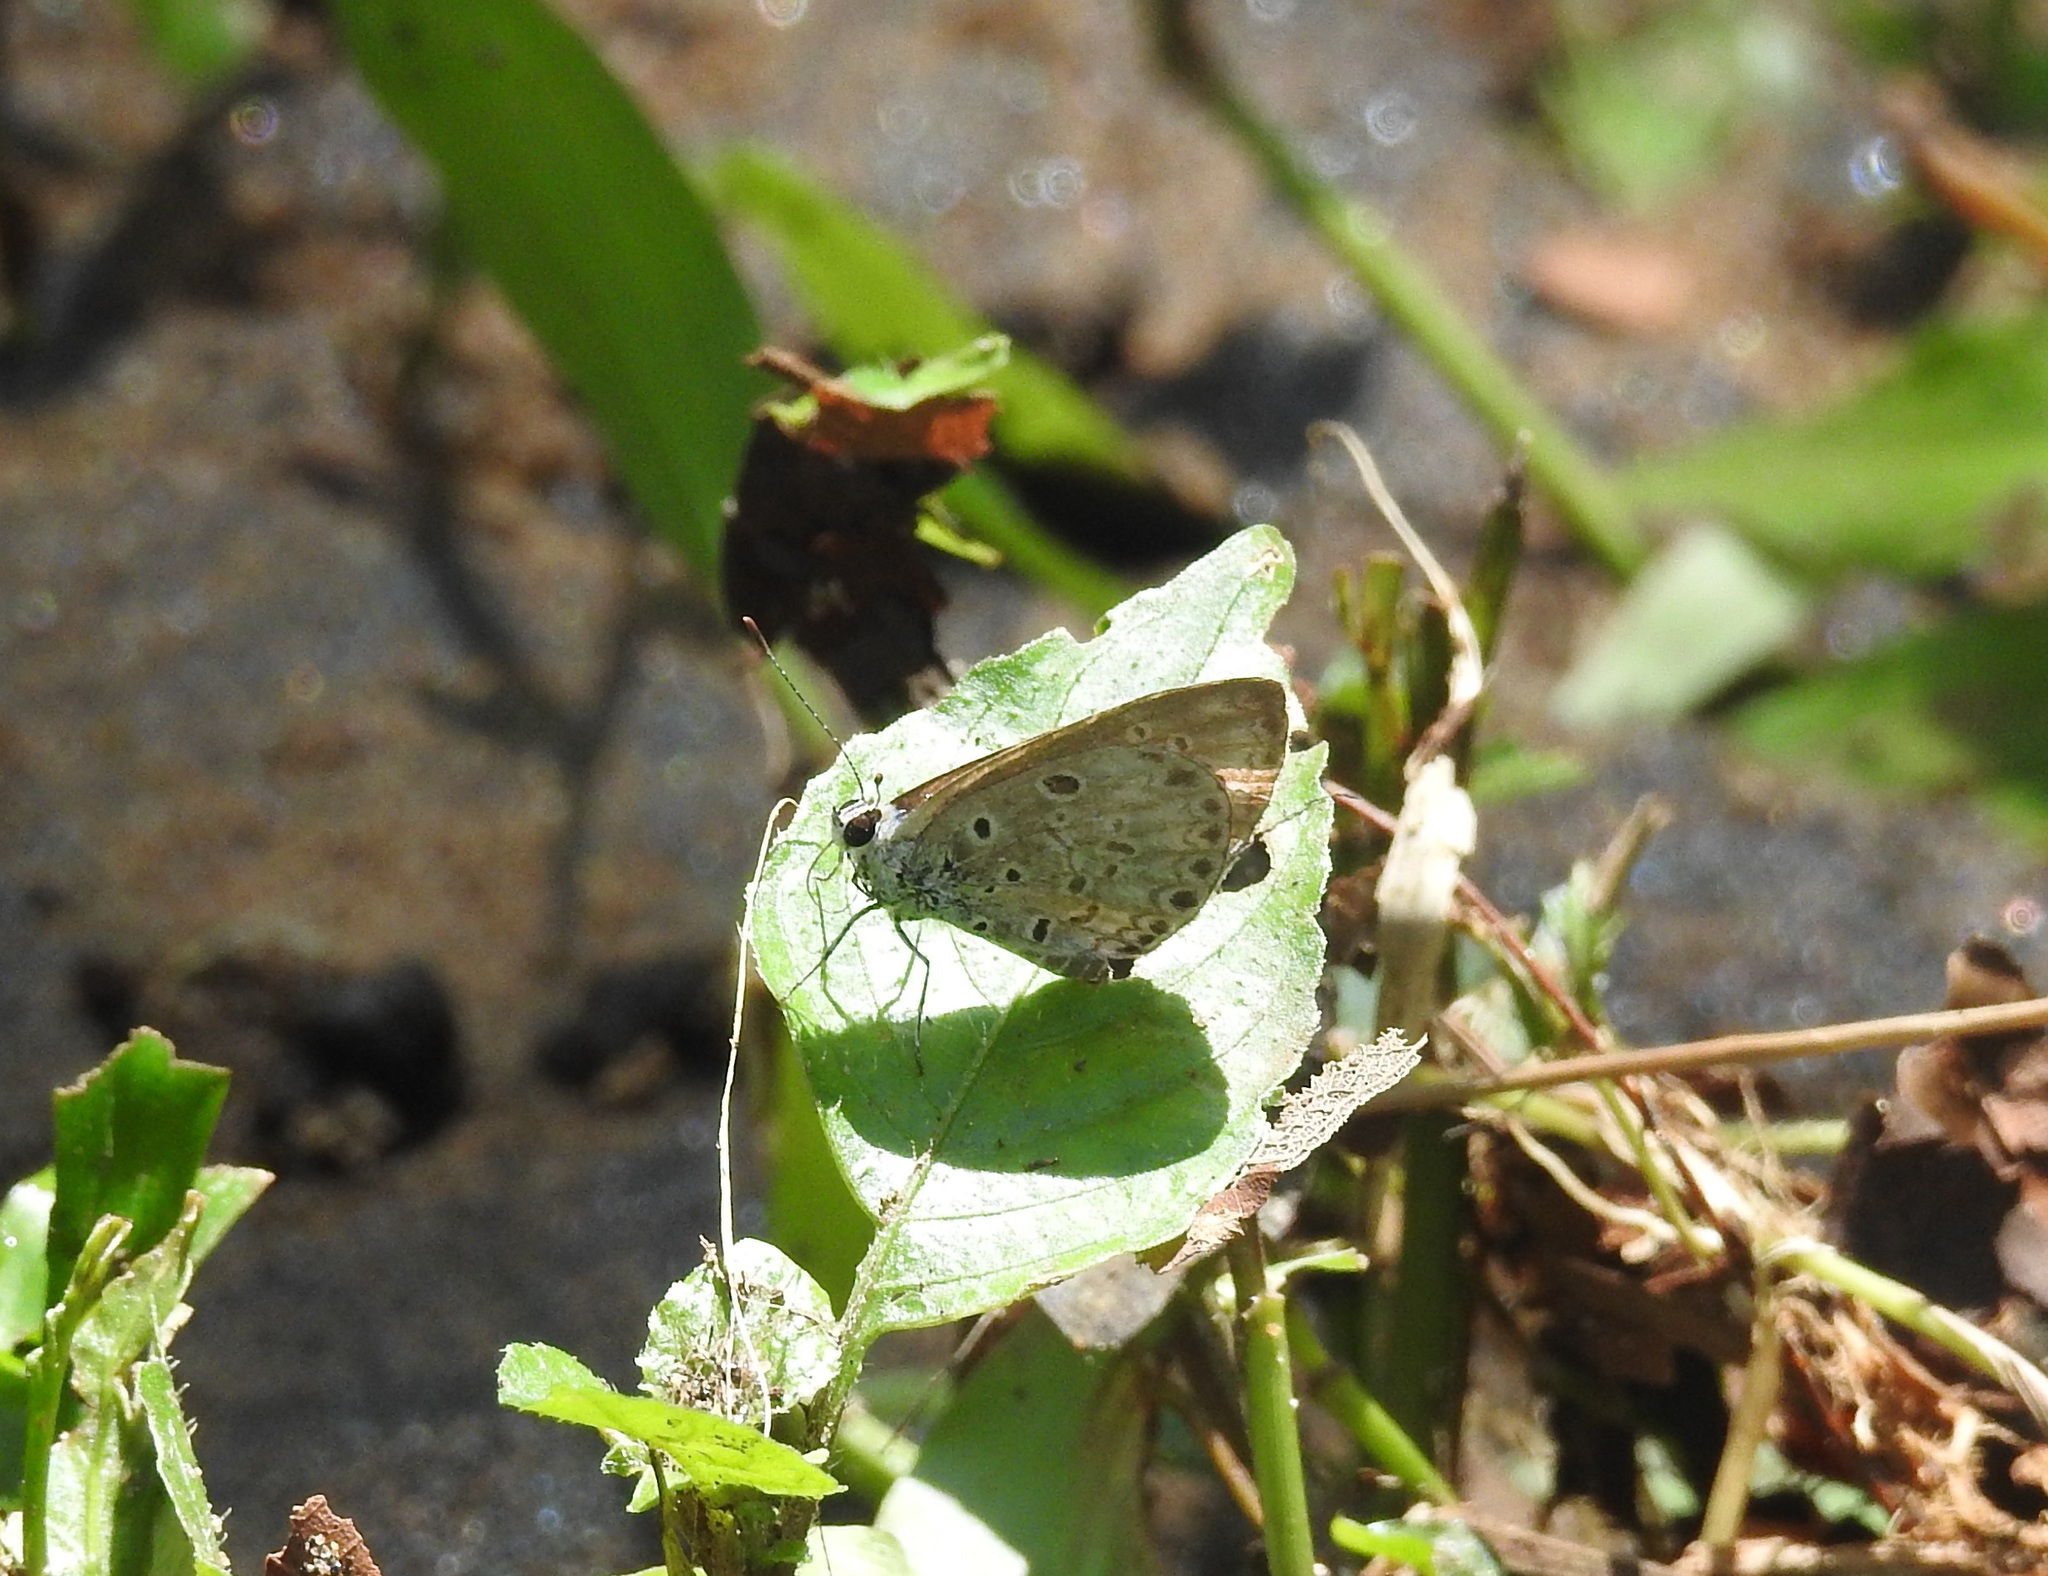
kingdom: Animalia
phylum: Arthropoda
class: Insecta
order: Lepidoptera
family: Lycaenidae
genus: Chilades
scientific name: Chilades laius
